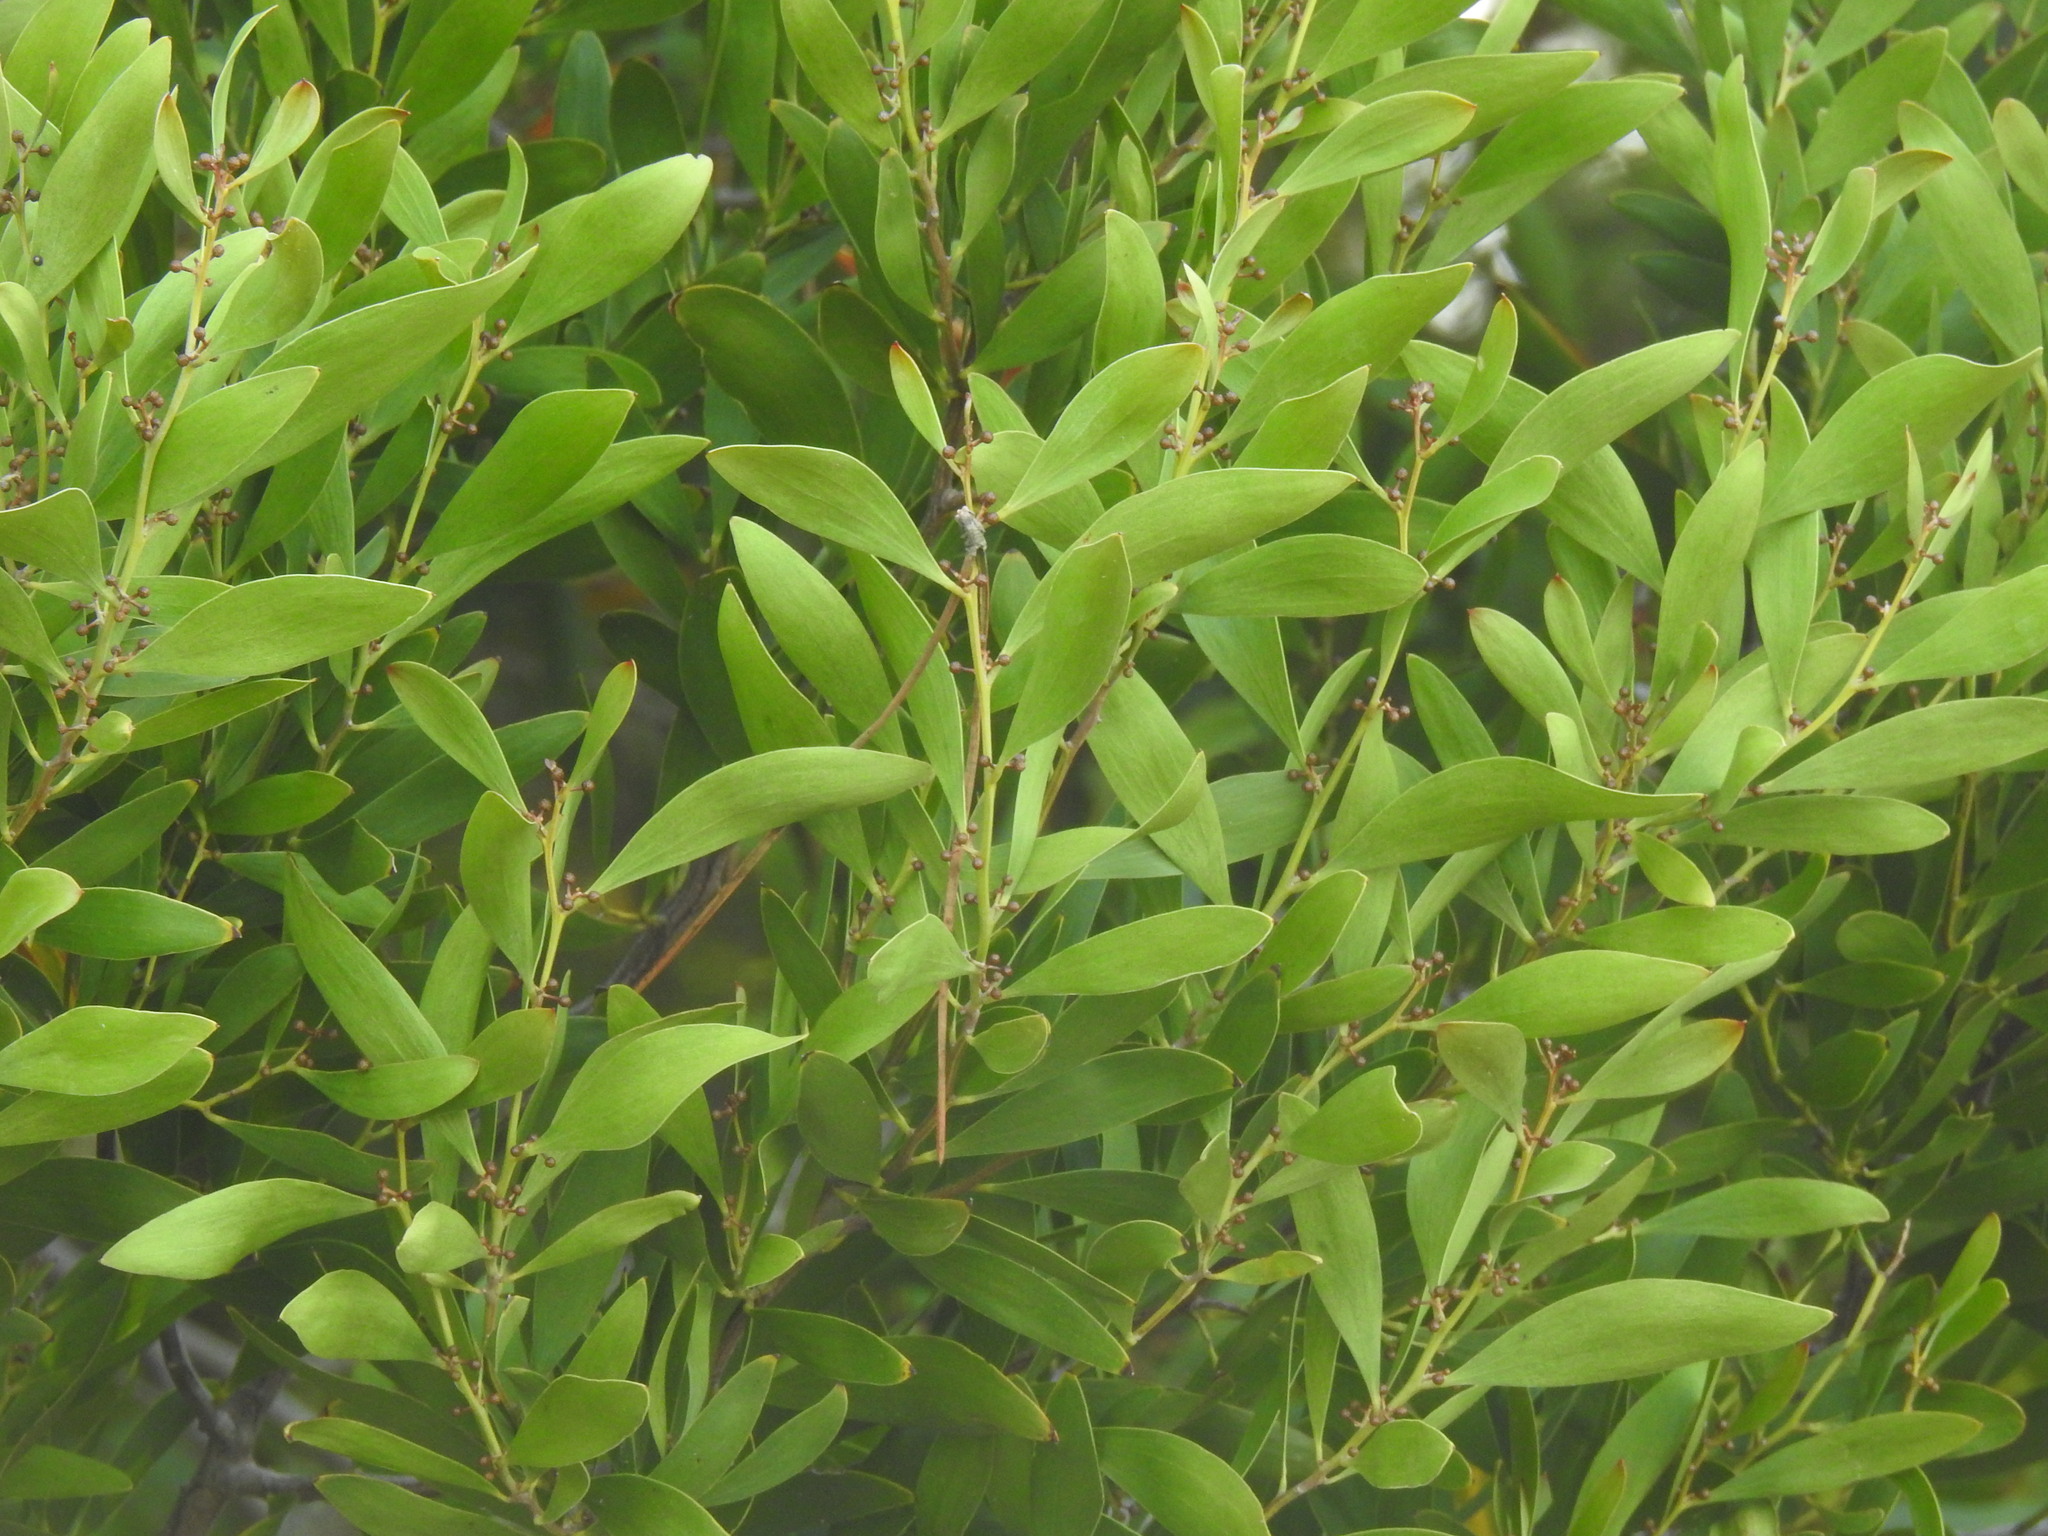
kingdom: Plantae
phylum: Tracheophyta
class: Magnoliopsida
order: Fabales
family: Fabaceae
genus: Acacia
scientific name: Acacia melanoxylon
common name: Blackwood
